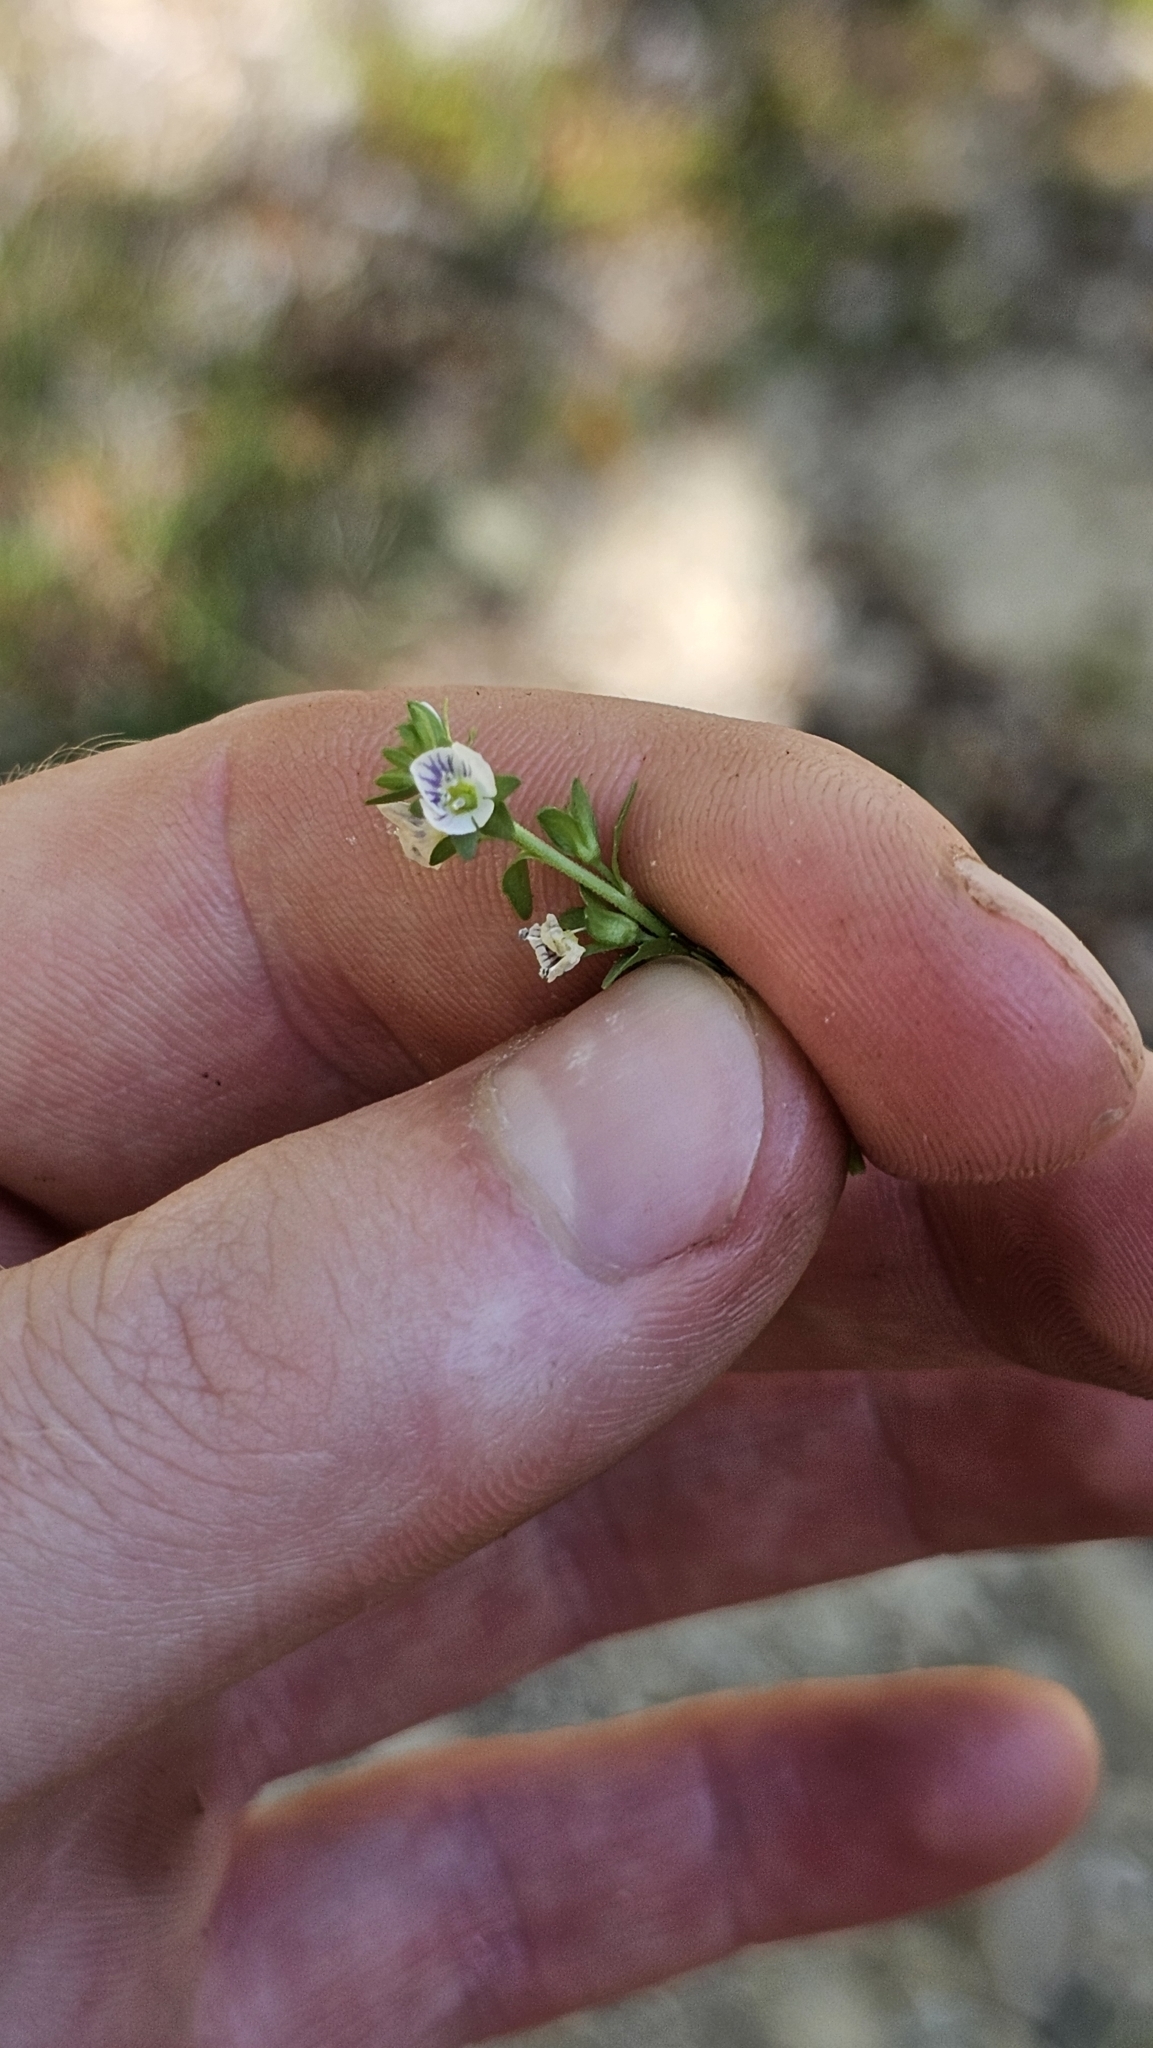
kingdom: Plantae
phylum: Tracheophyta
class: Magnoliopsida
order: Lamiales
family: Plantaginaceae
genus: Veronica
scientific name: Veronica serpyllifolia
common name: Thyme-leaved speedwell
